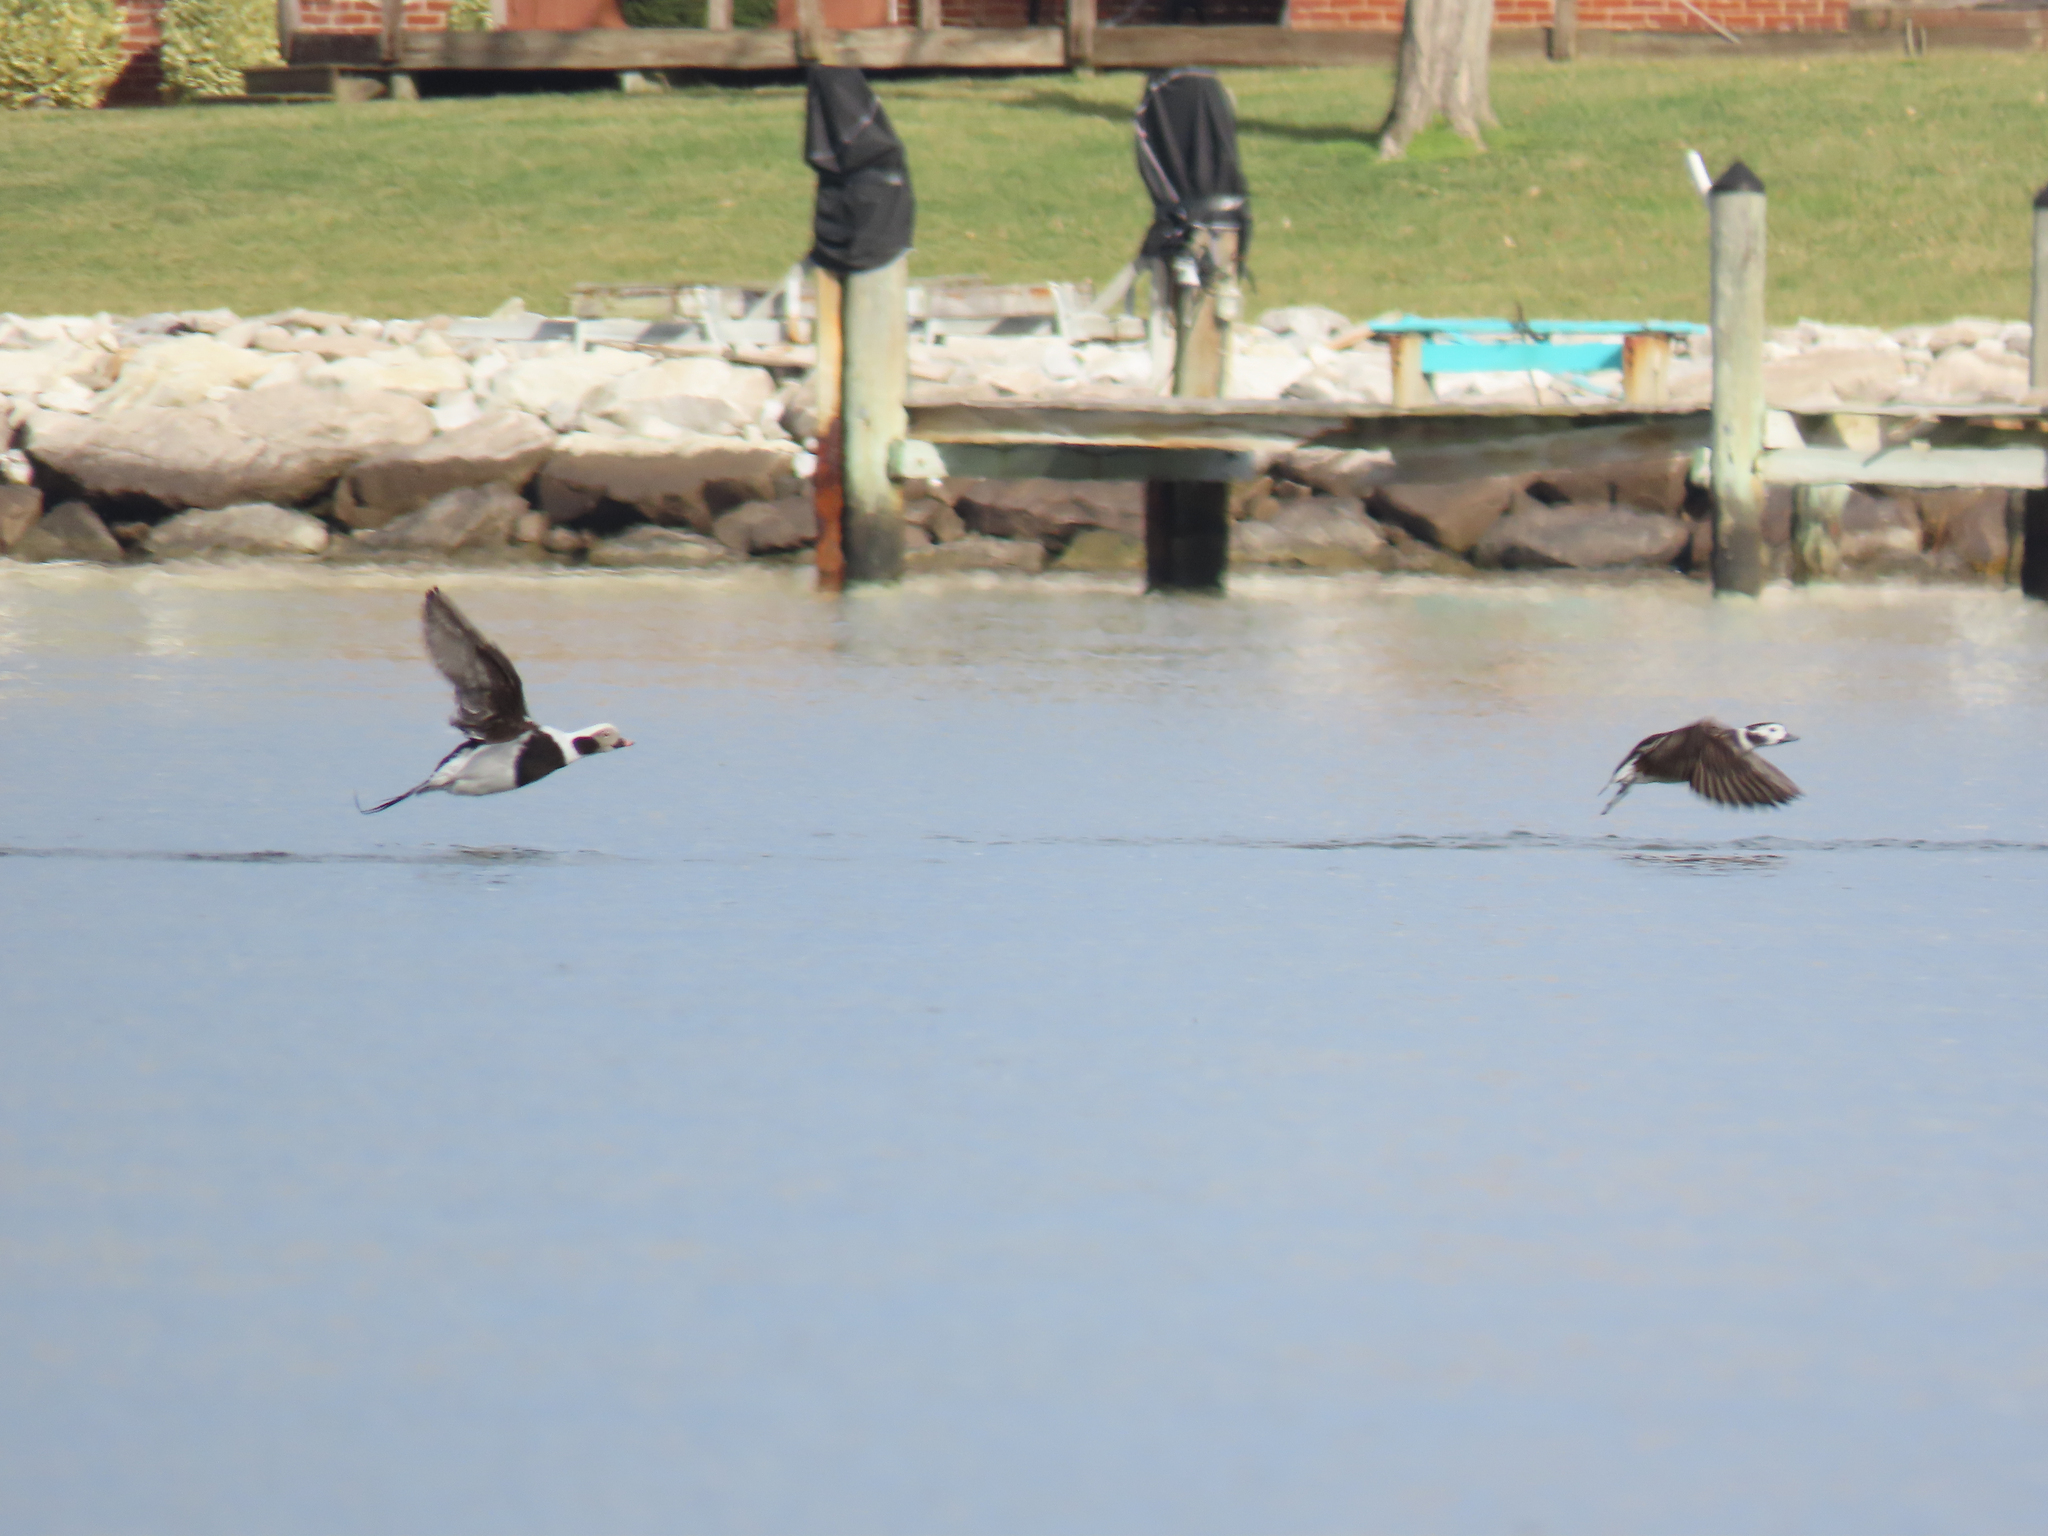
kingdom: Animalia
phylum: Chordata
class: Aves
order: Anseriformes
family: Anatidae
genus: Clangula
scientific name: Clangula hyemalis
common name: Long-tailed duck
